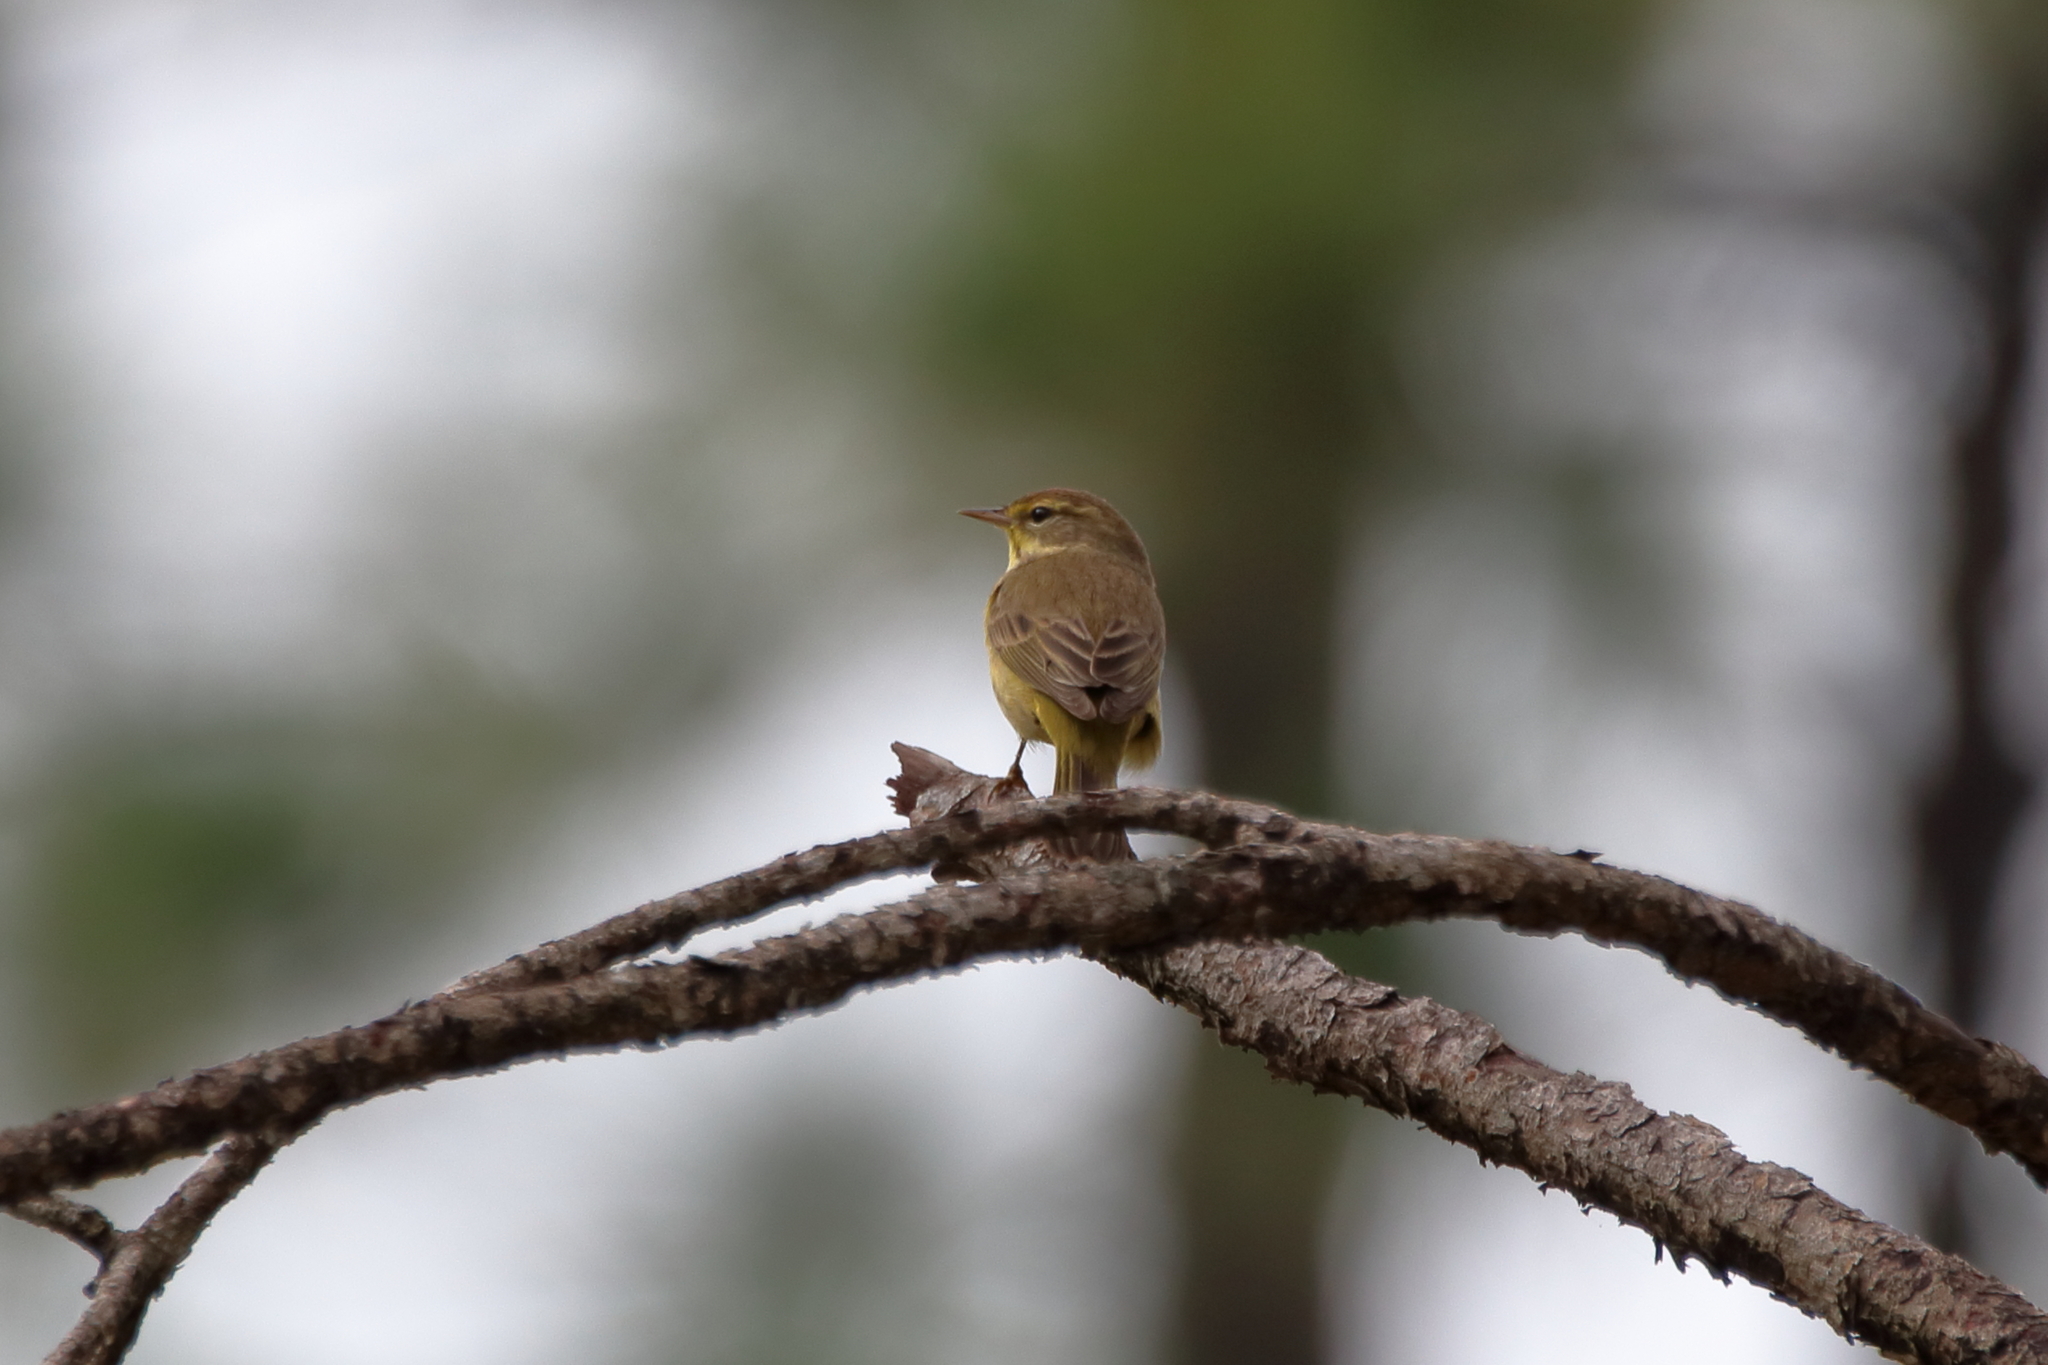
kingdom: Animalia
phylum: Chordata
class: Aves
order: Passeriformes
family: Parulidae
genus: Setophaga
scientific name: Setophaga palmarum
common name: Palm warbler
